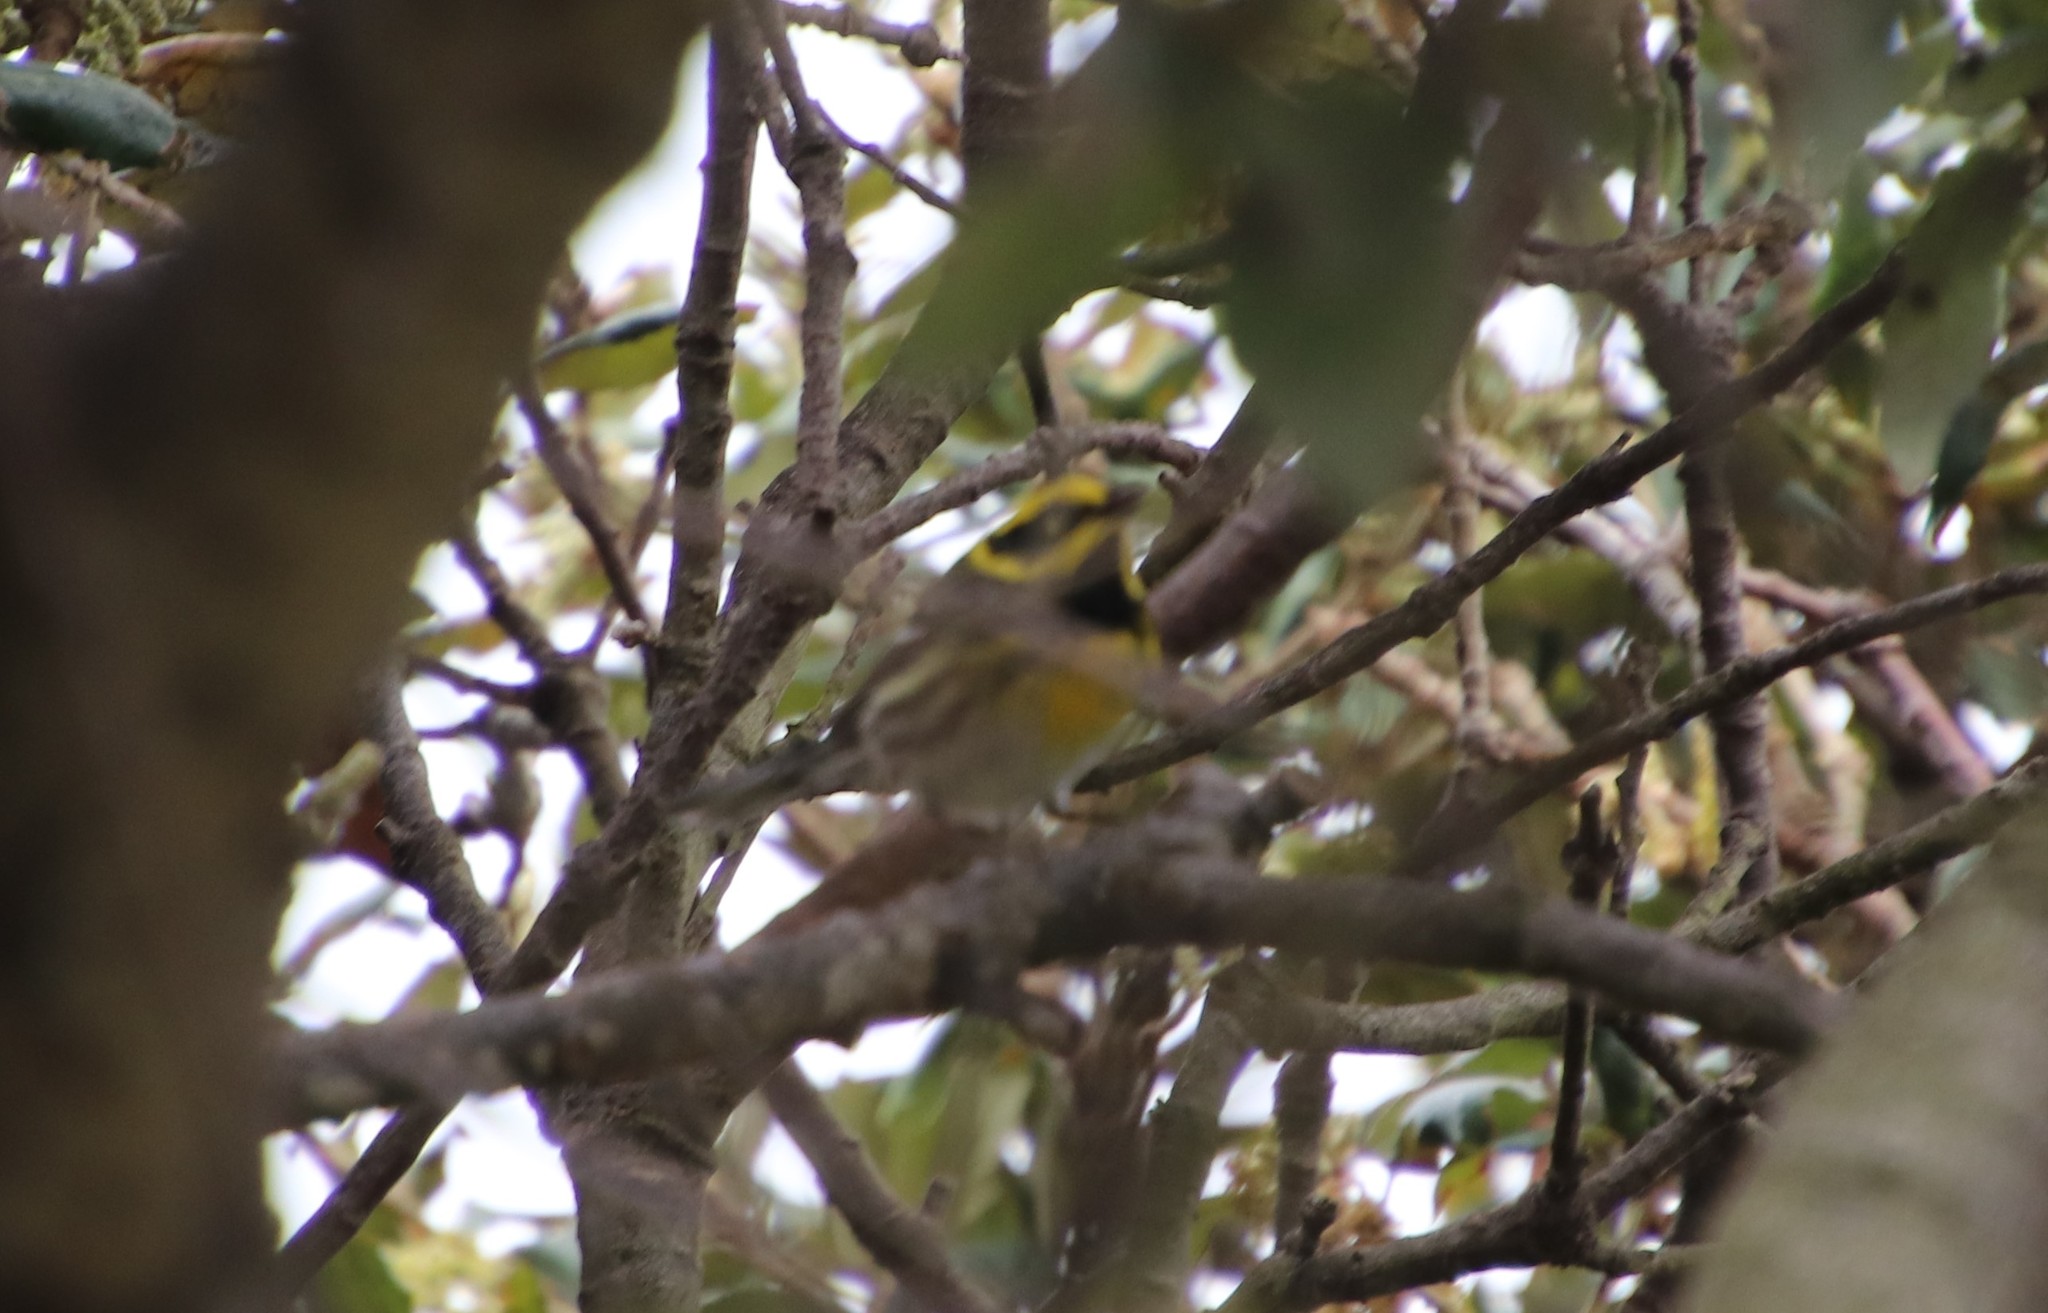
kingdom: Animalia
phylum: Chordata
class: Aves
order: Passeriformes
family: Parulidae
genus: Setophaga
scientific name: Setophaga townsendi
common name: Townsend's warbler
